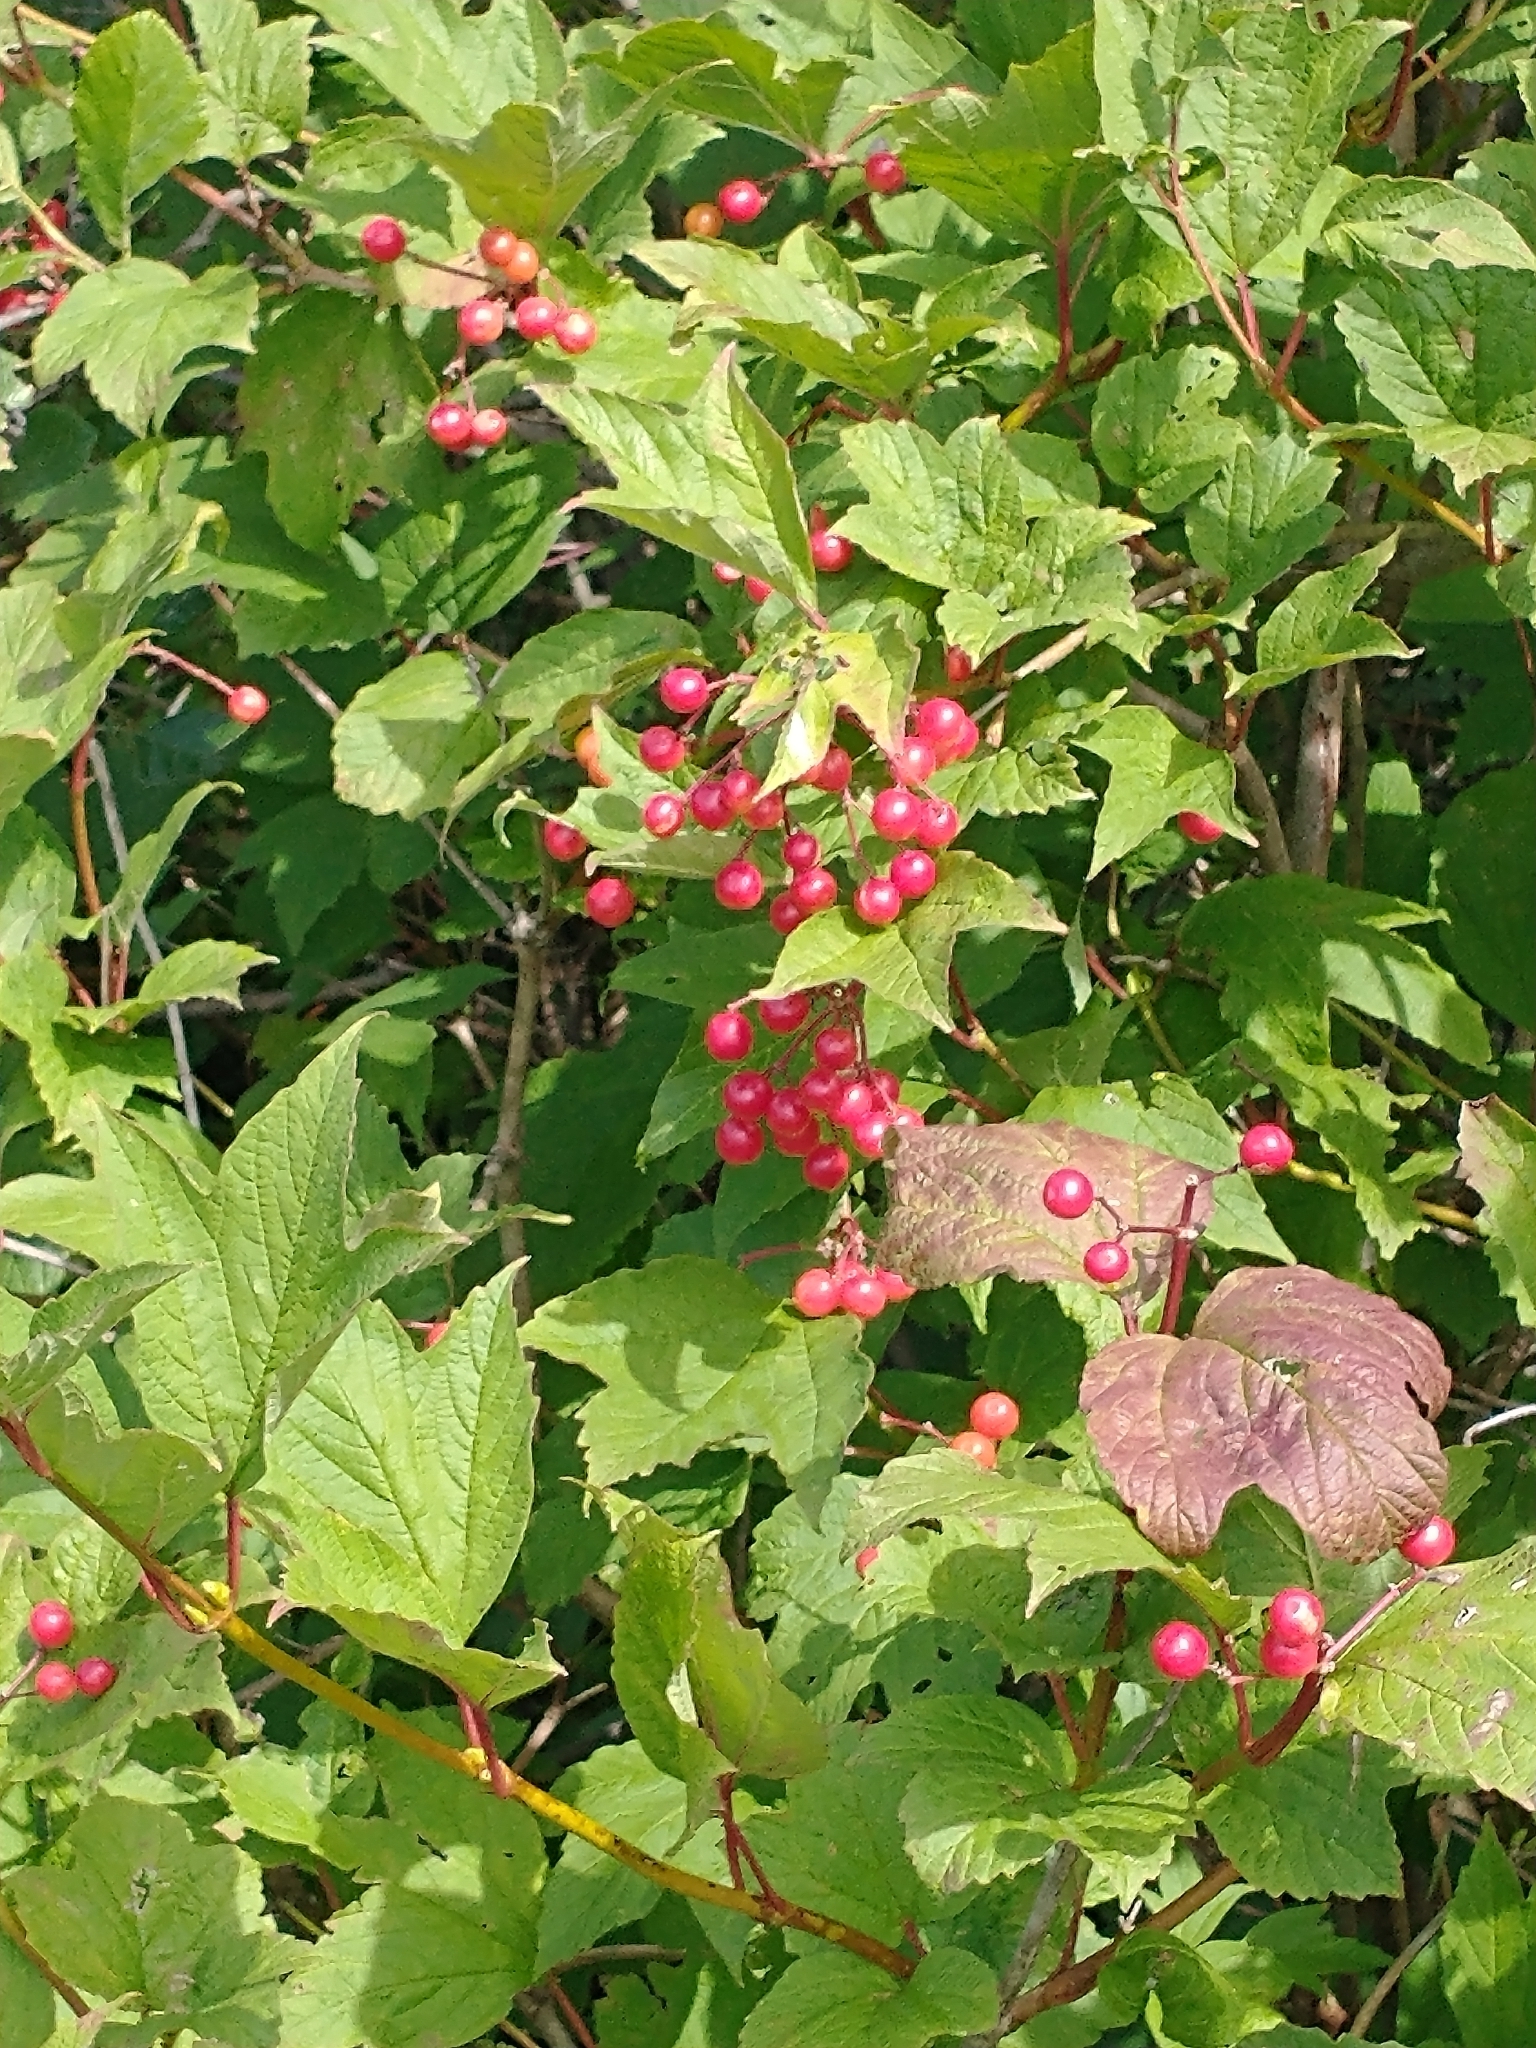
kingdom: Plantae
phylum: Tracheophyta
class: Magnoliopsida
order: Dipsacales
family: Viburnaceae
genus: Viburnum
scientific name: Viburnum opulus
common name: Guelder-rose
